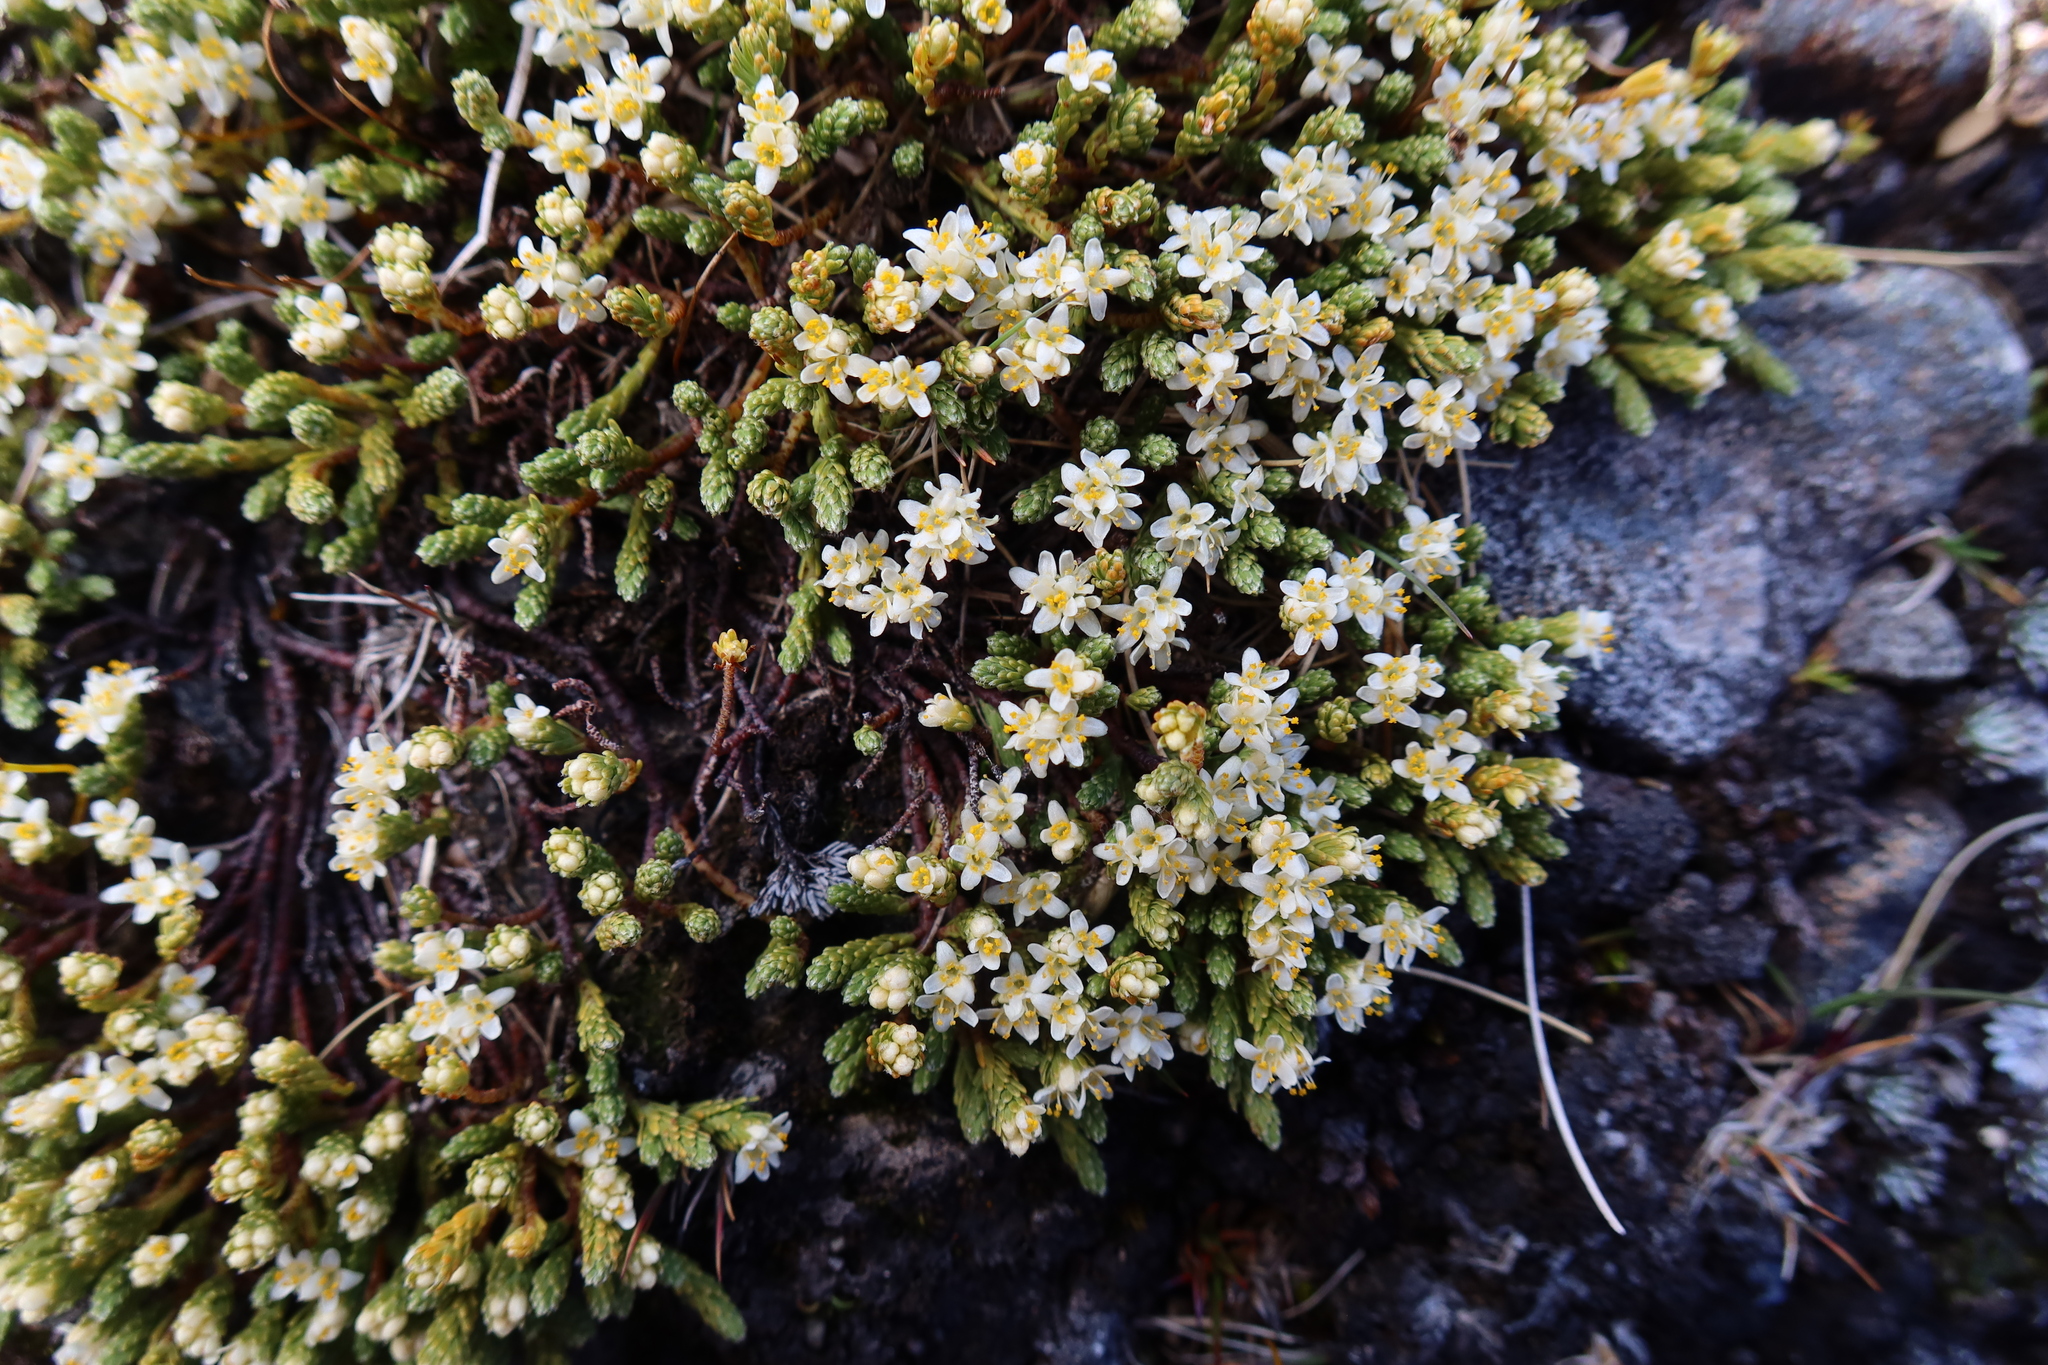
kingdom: Plantae
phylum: Tracheophyta
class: Magnoliopsida
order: Malvales
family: Thymelaeaceae
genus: Kelleria
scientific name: Kelleria dieffenbachii
